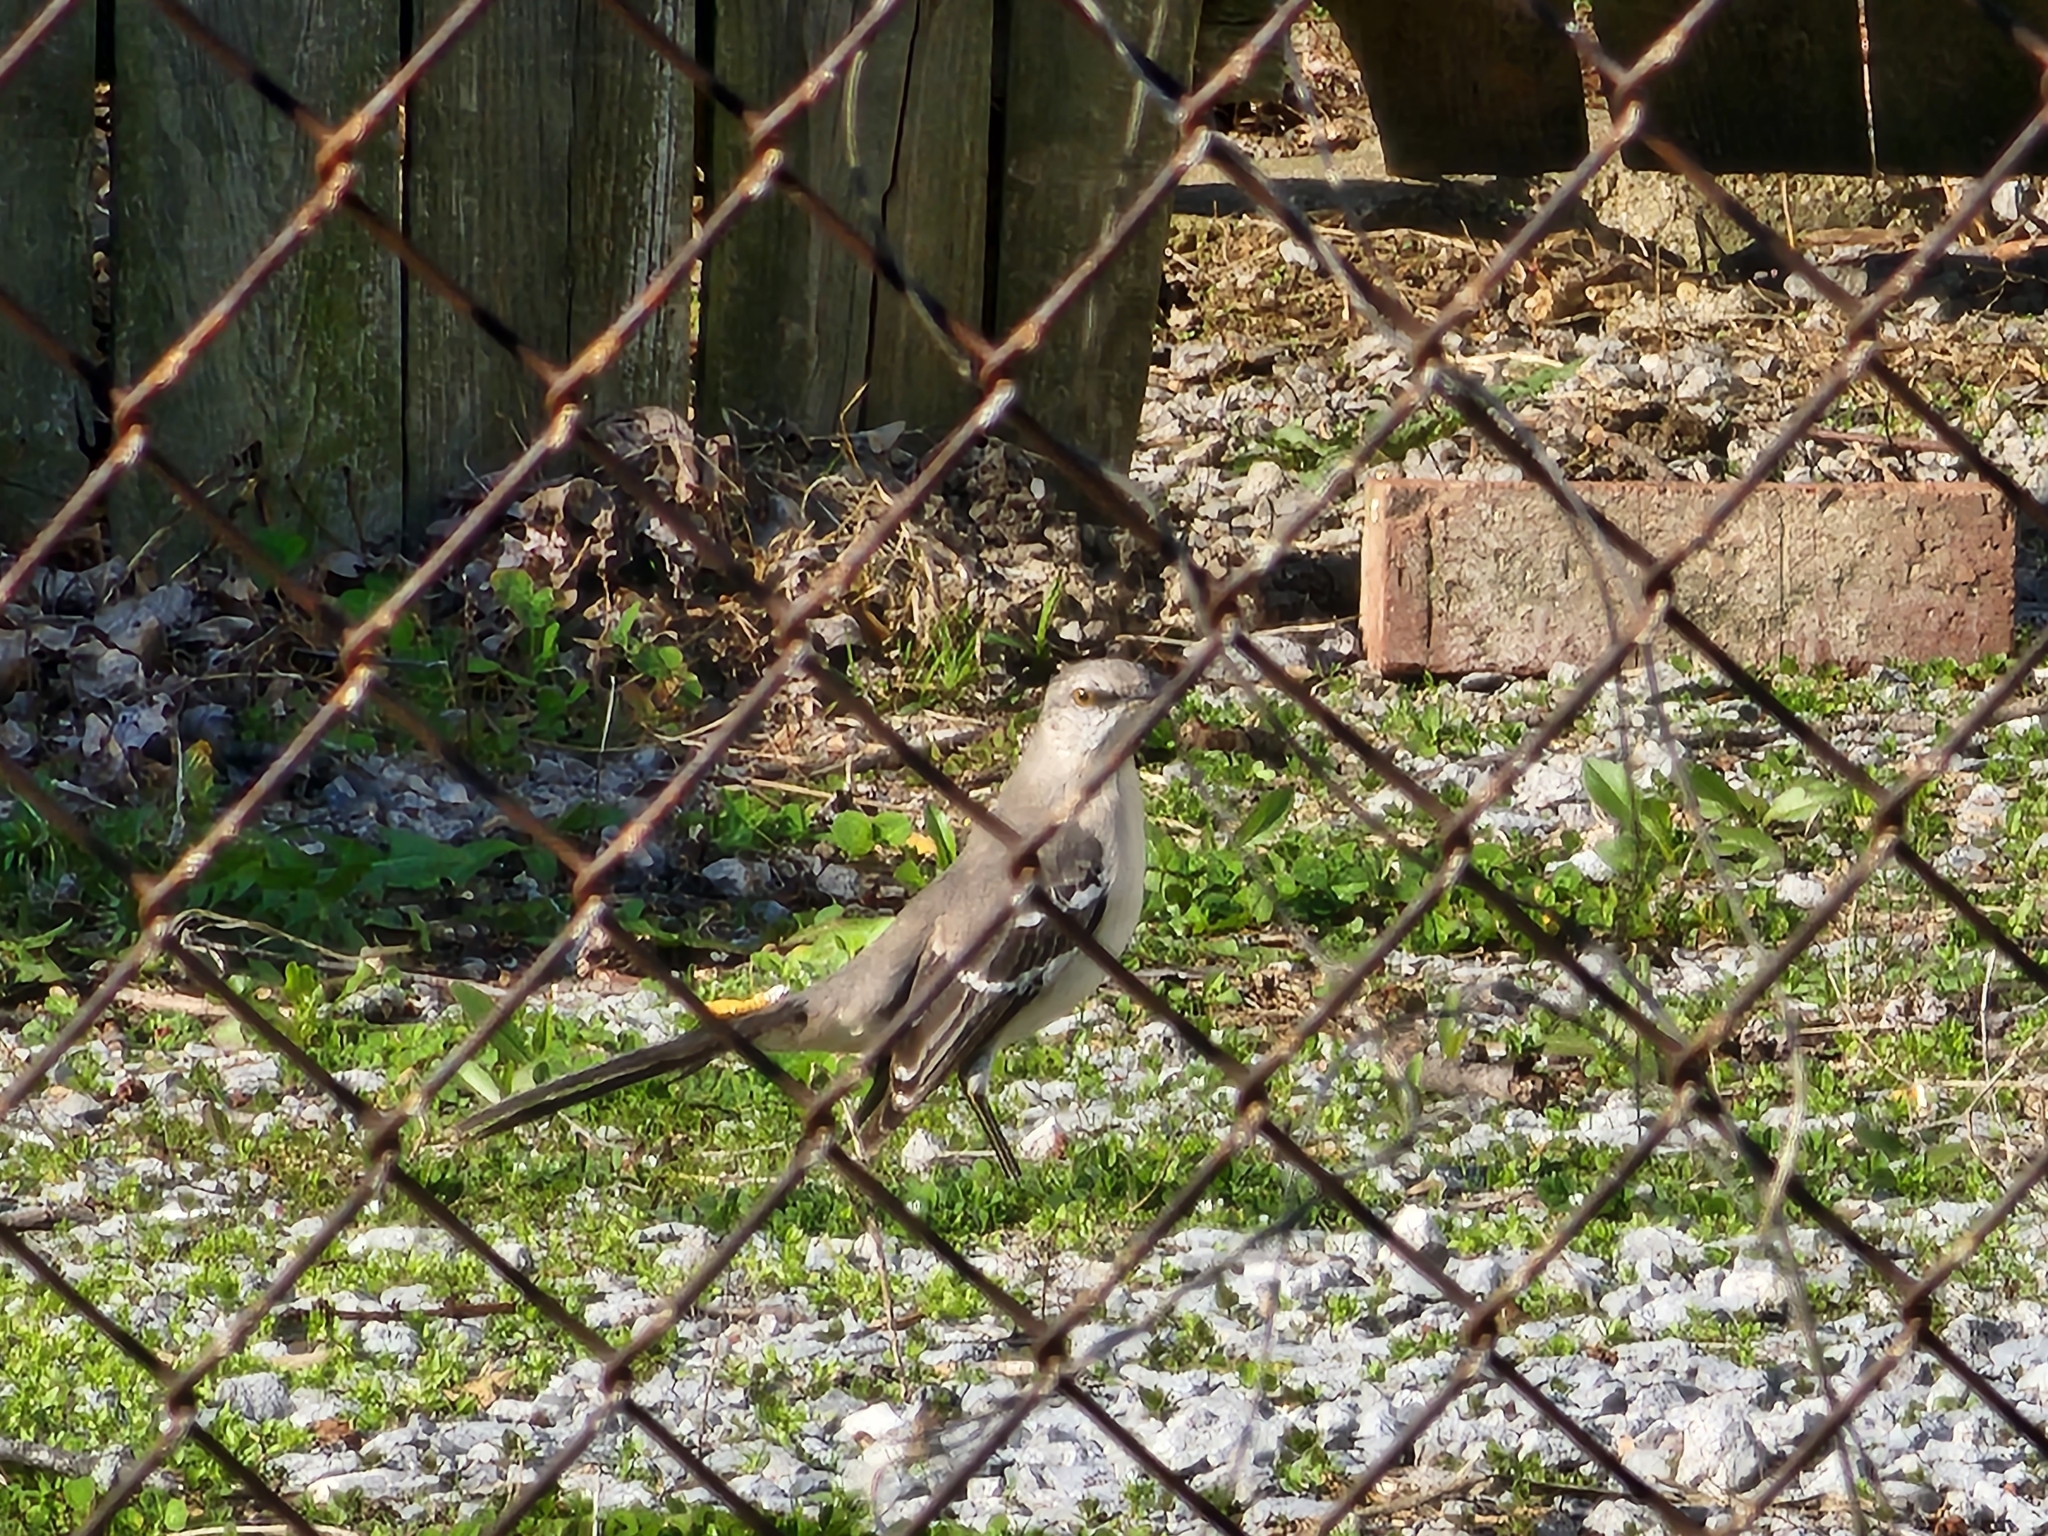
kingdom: Animalia
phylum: Chordata
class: Aves
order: Passeriformes
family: Mimidae
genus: Mimus
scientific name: Mimus polyglottos
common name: Northern mockingbird
